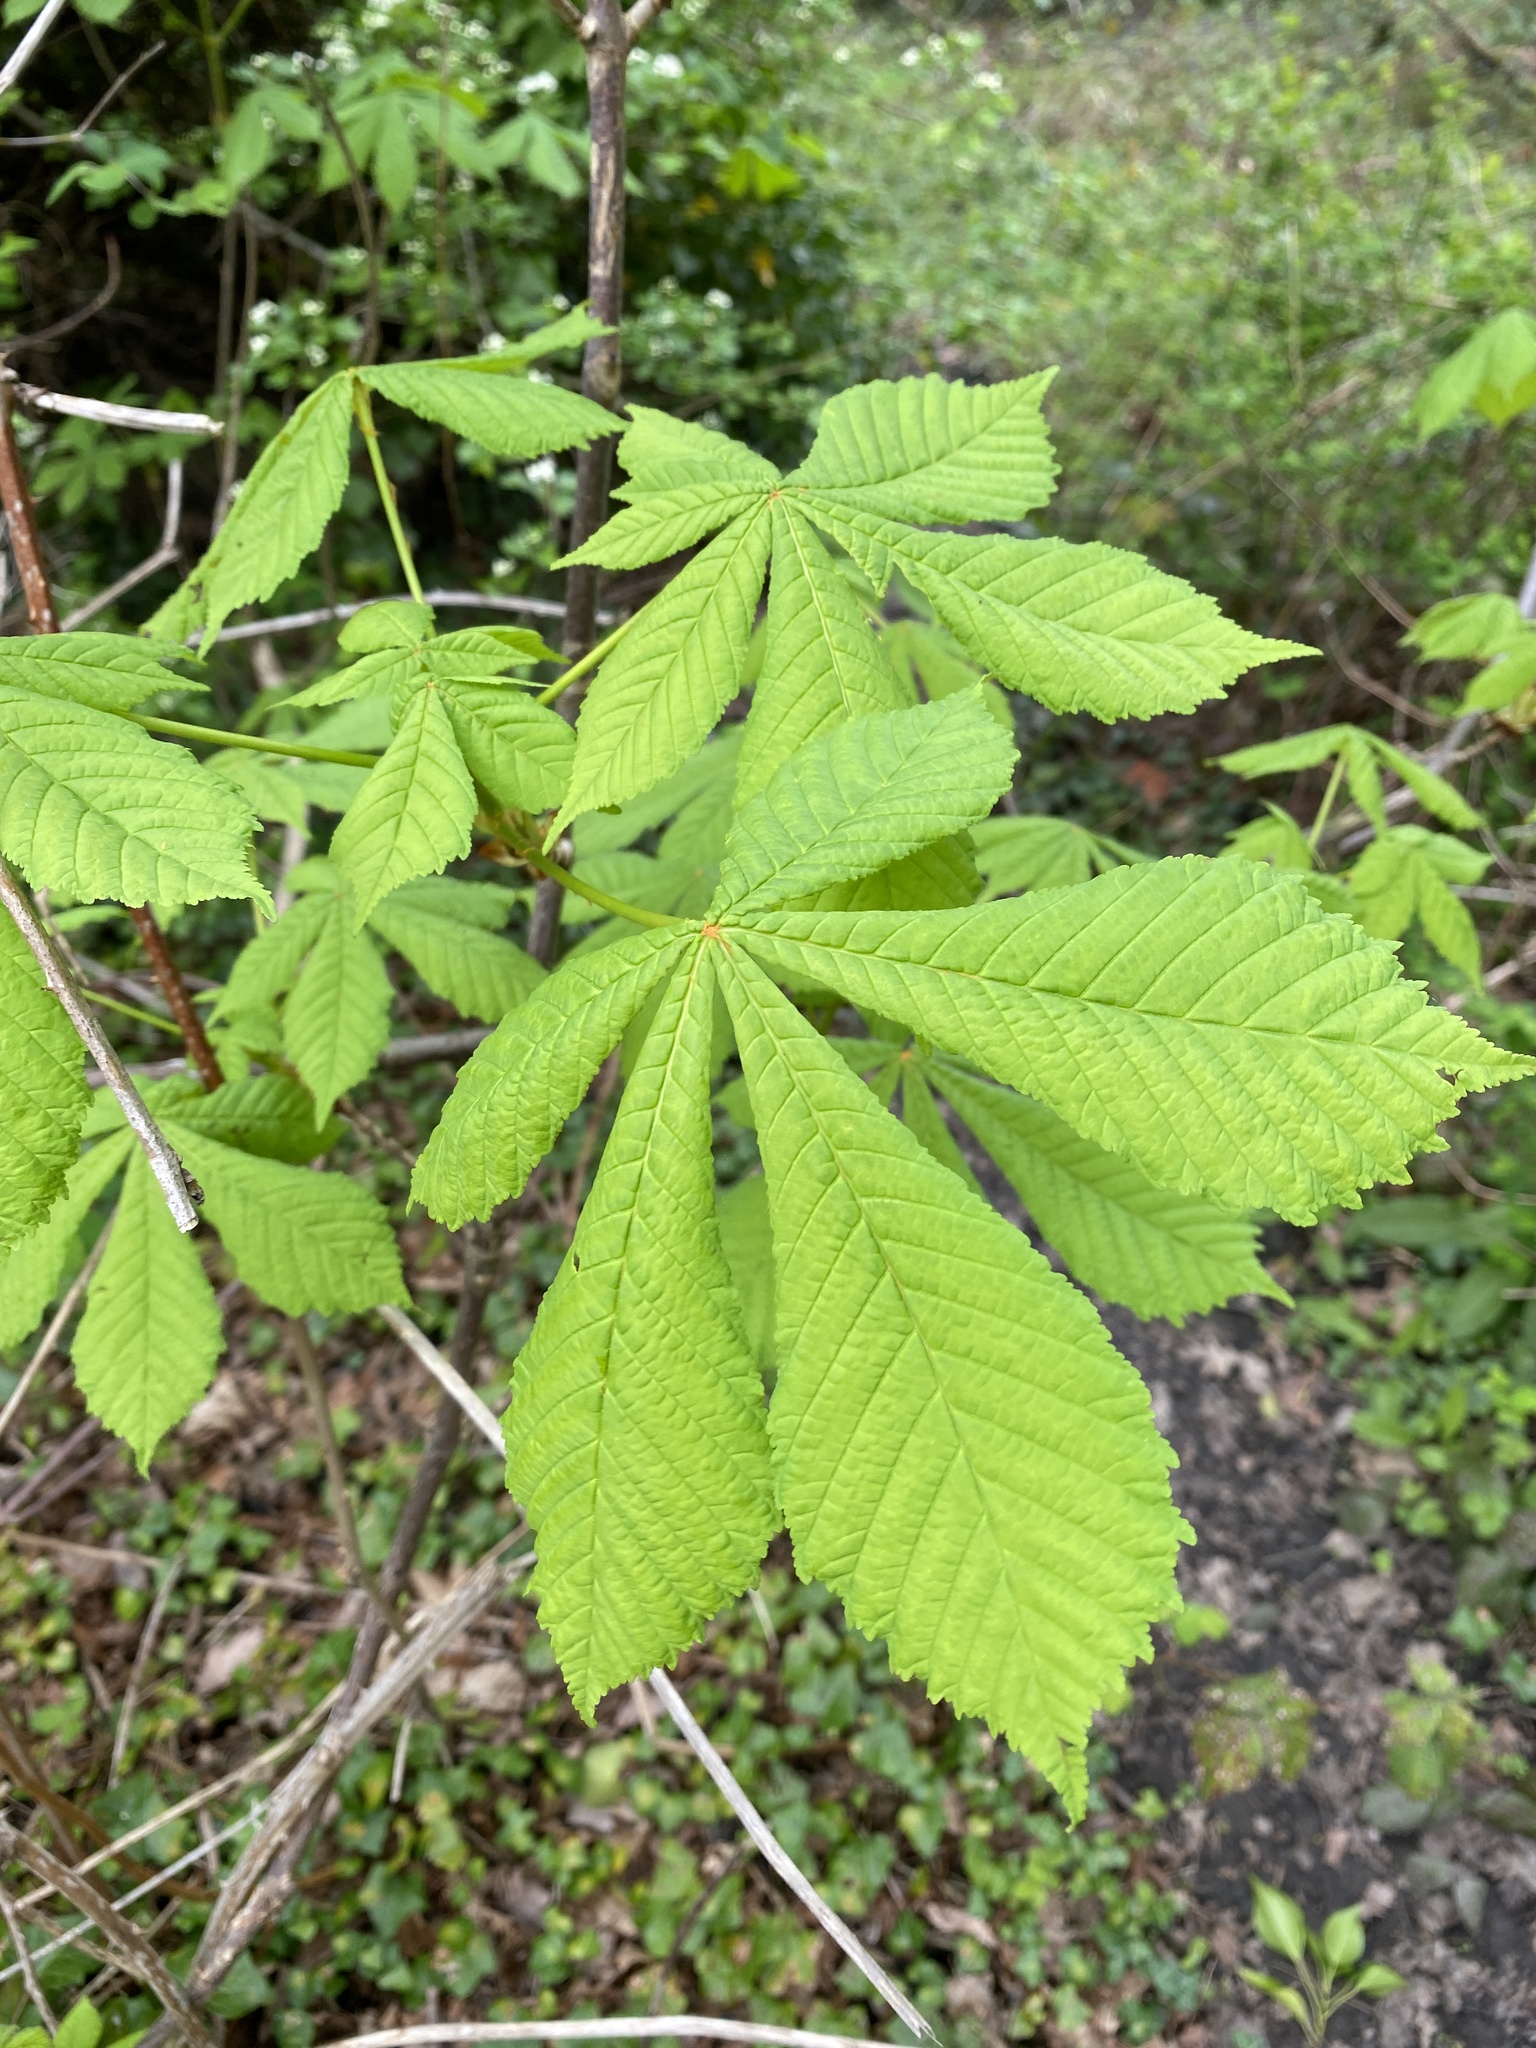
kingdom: Plantae
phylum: Tracheophyta
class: Magnoliopsida
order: Sapindales
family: Sapindaceae
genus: Aesculus
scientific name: Aesculus hippocastanum
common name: Horse-chestnut
